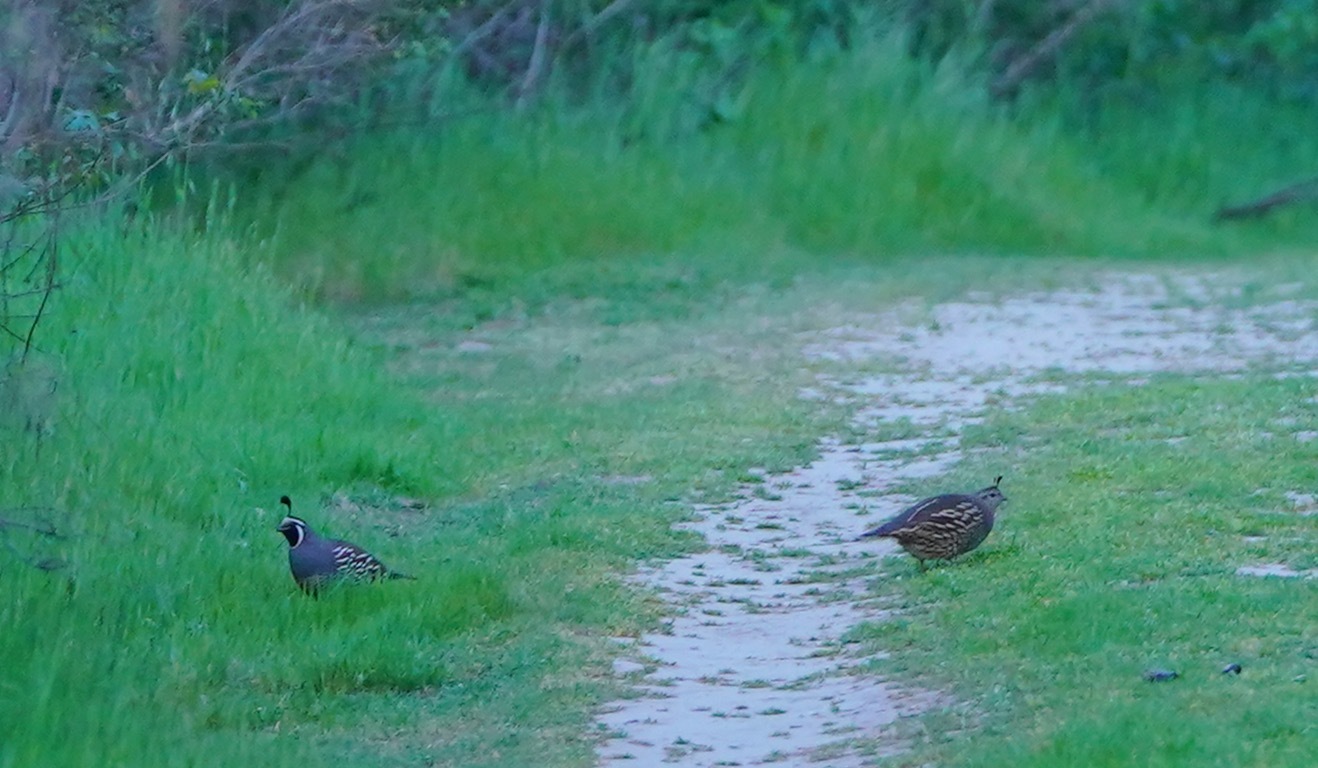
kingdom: Animalia
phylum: Chordata
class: Aves
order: Galliformes
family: Odontophoridae
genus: Callipepla
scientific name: Callipepla californica
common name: California quail
